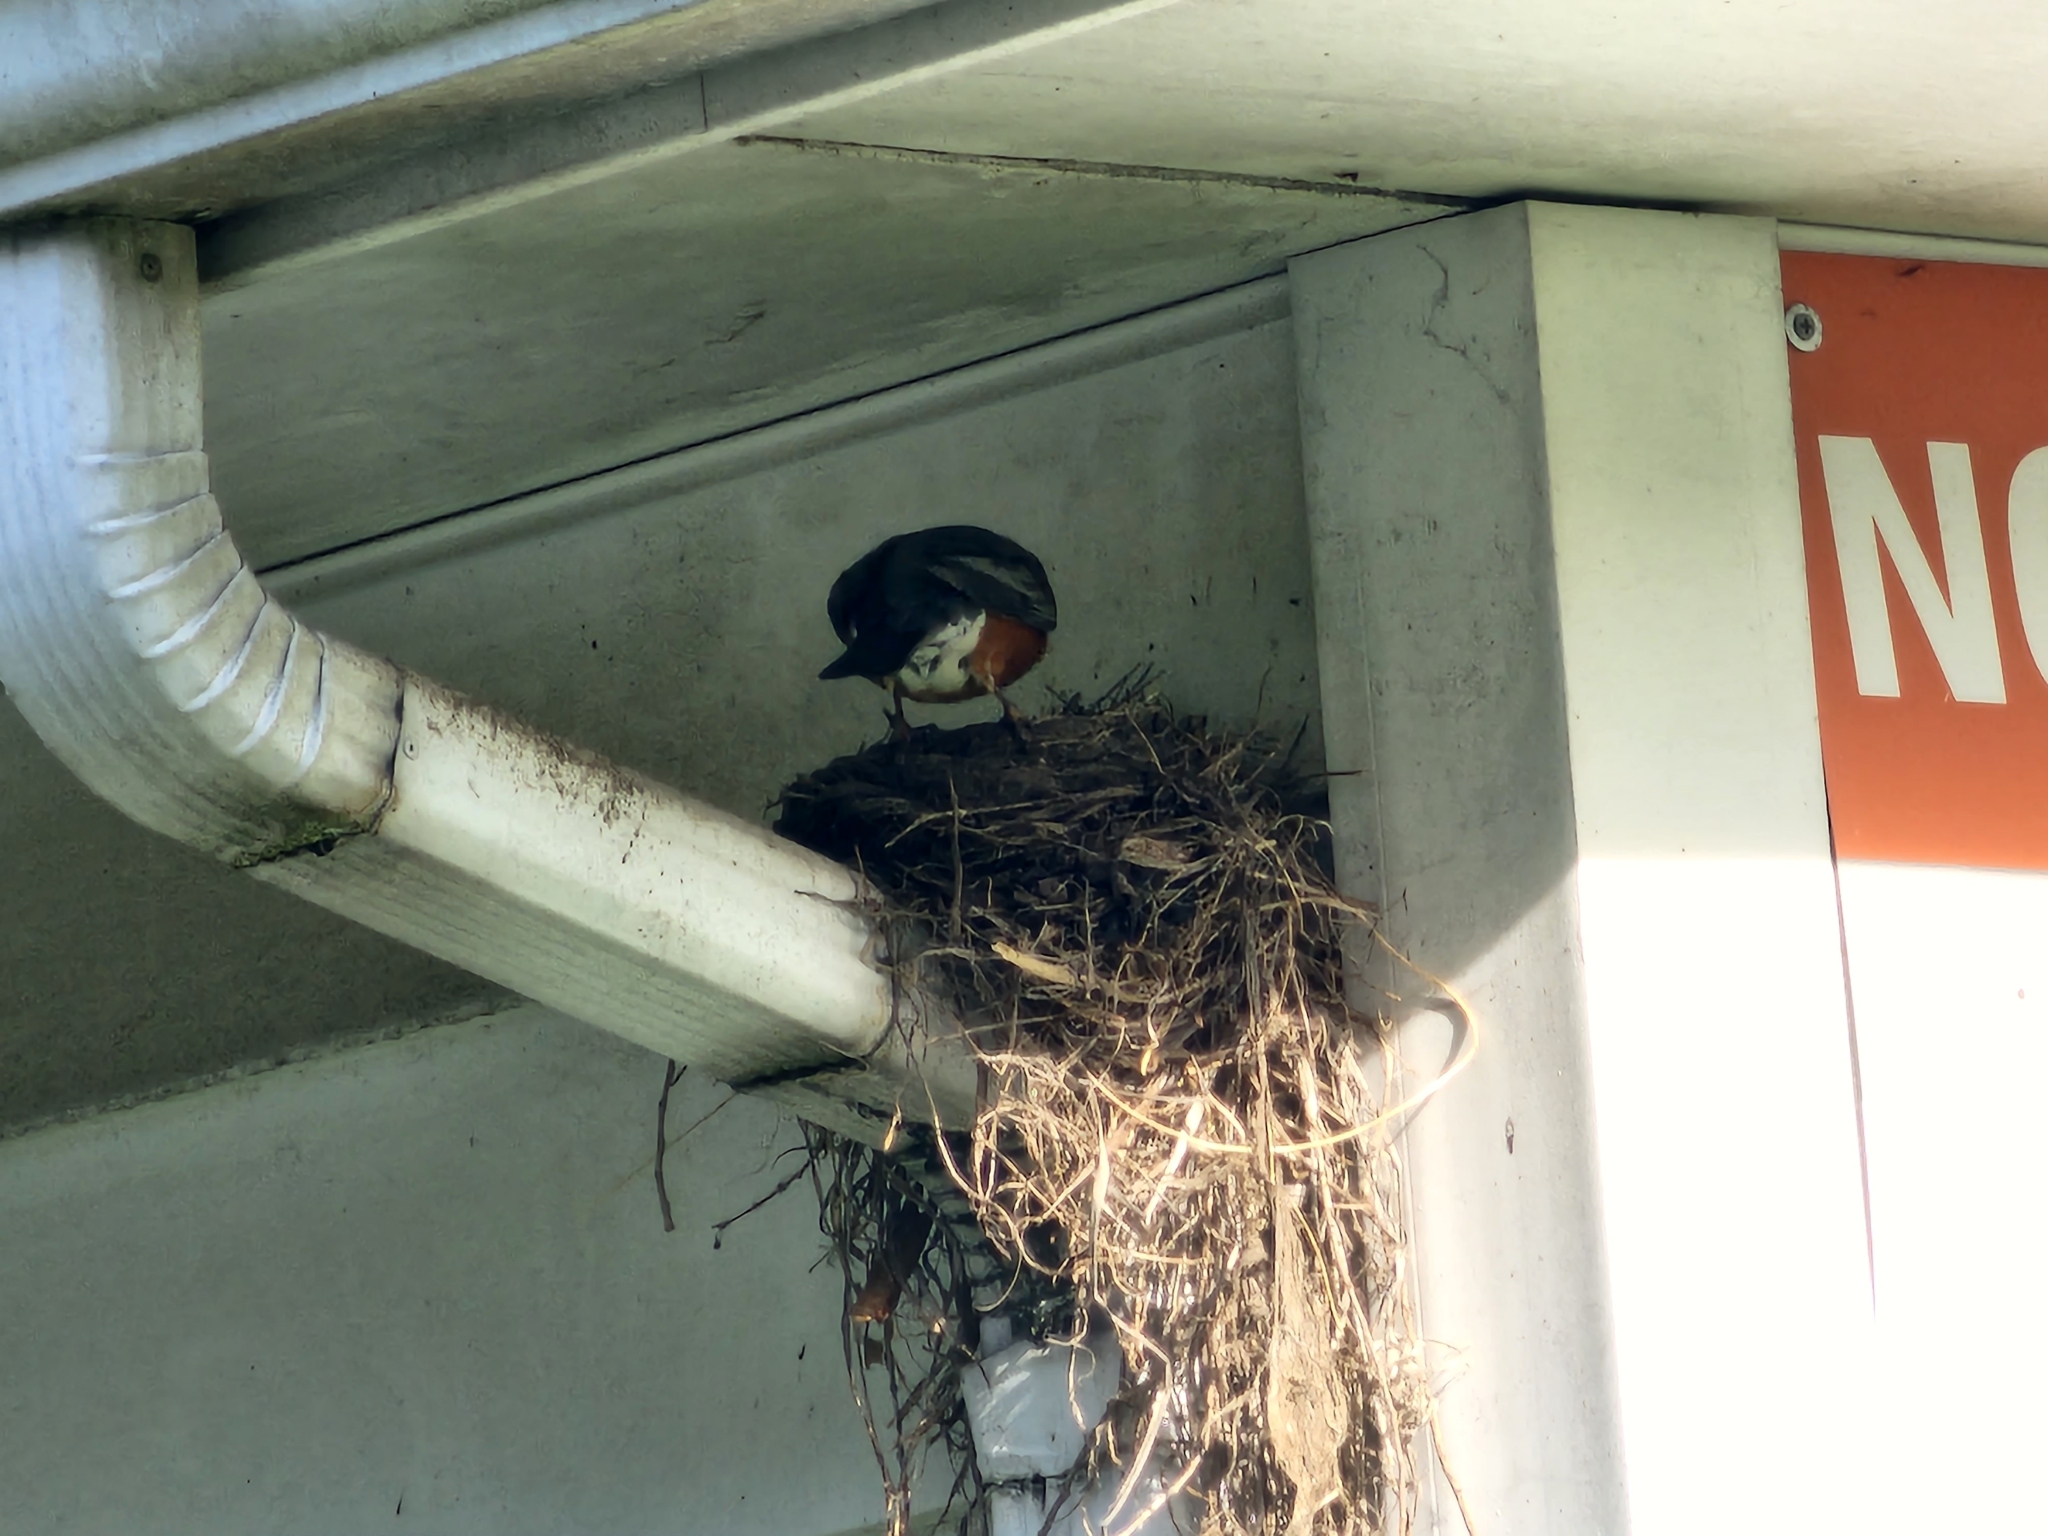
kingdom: Animalia
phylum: Chordata
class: Aves
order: Passeriformes
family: Turdidae
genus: Turdus
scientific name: Turdus migratorius
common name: American robin
